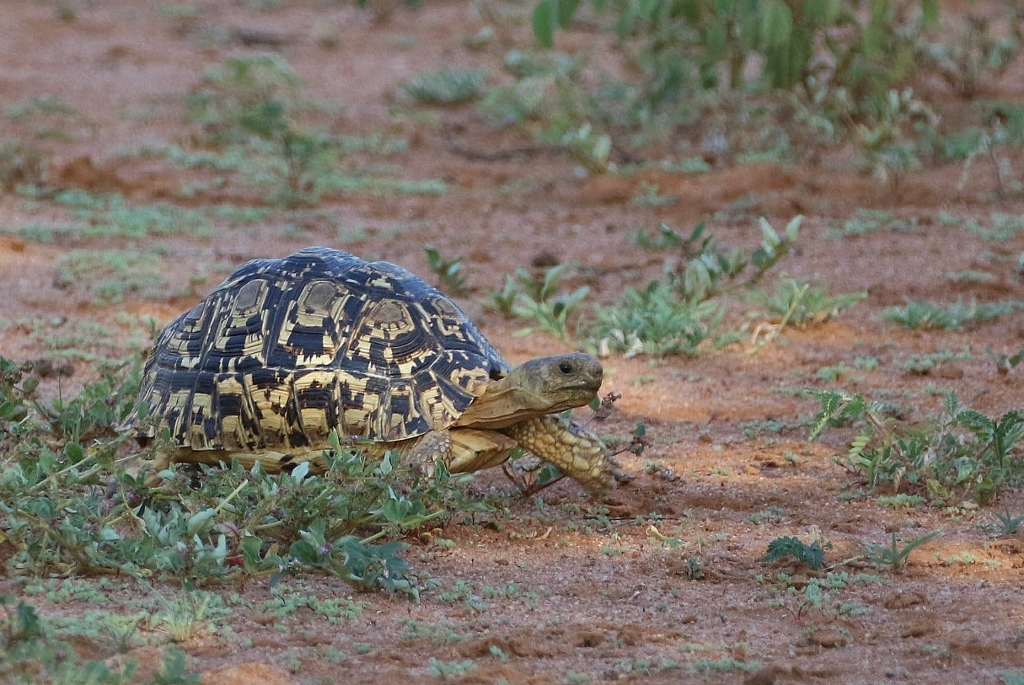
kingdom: Animalia
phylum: Chordata
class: Testudines
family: Testudinidae
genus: Stigmochelys
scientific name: Stigmochelys pardalis
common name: Leopard tortoise
